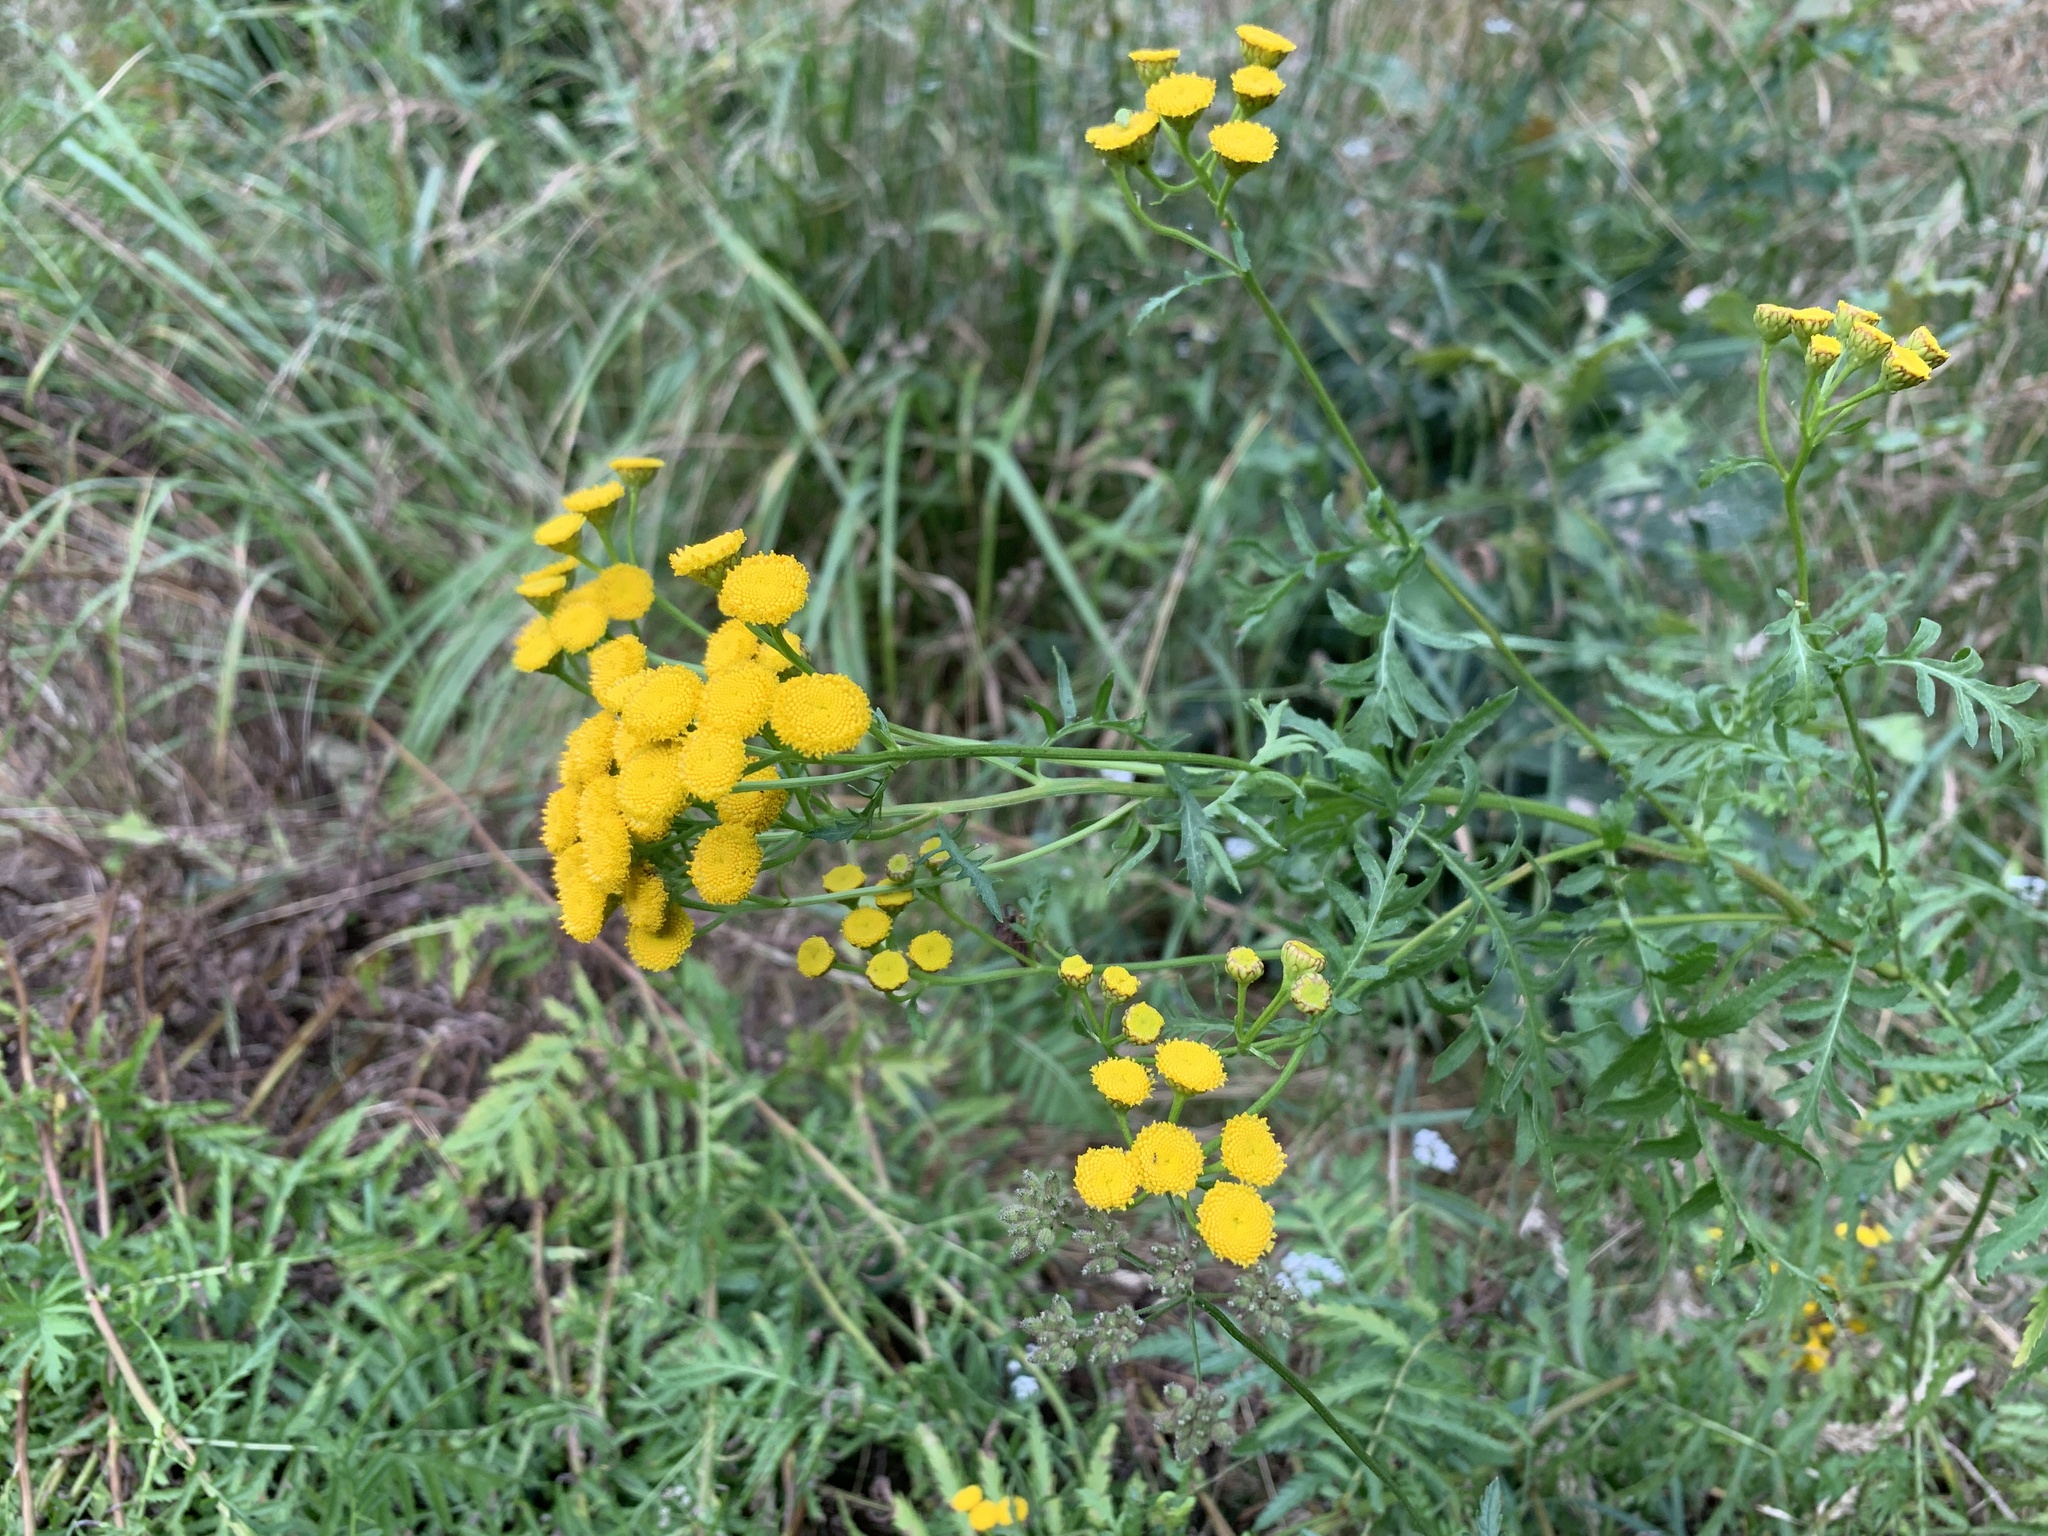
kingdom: Plantae
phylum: Tracheophyta
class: Magnoliopsida
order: Asterales
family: Asteraceae
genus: Tanacetum
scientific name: Tanacetum vulgare
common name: Common tansy
